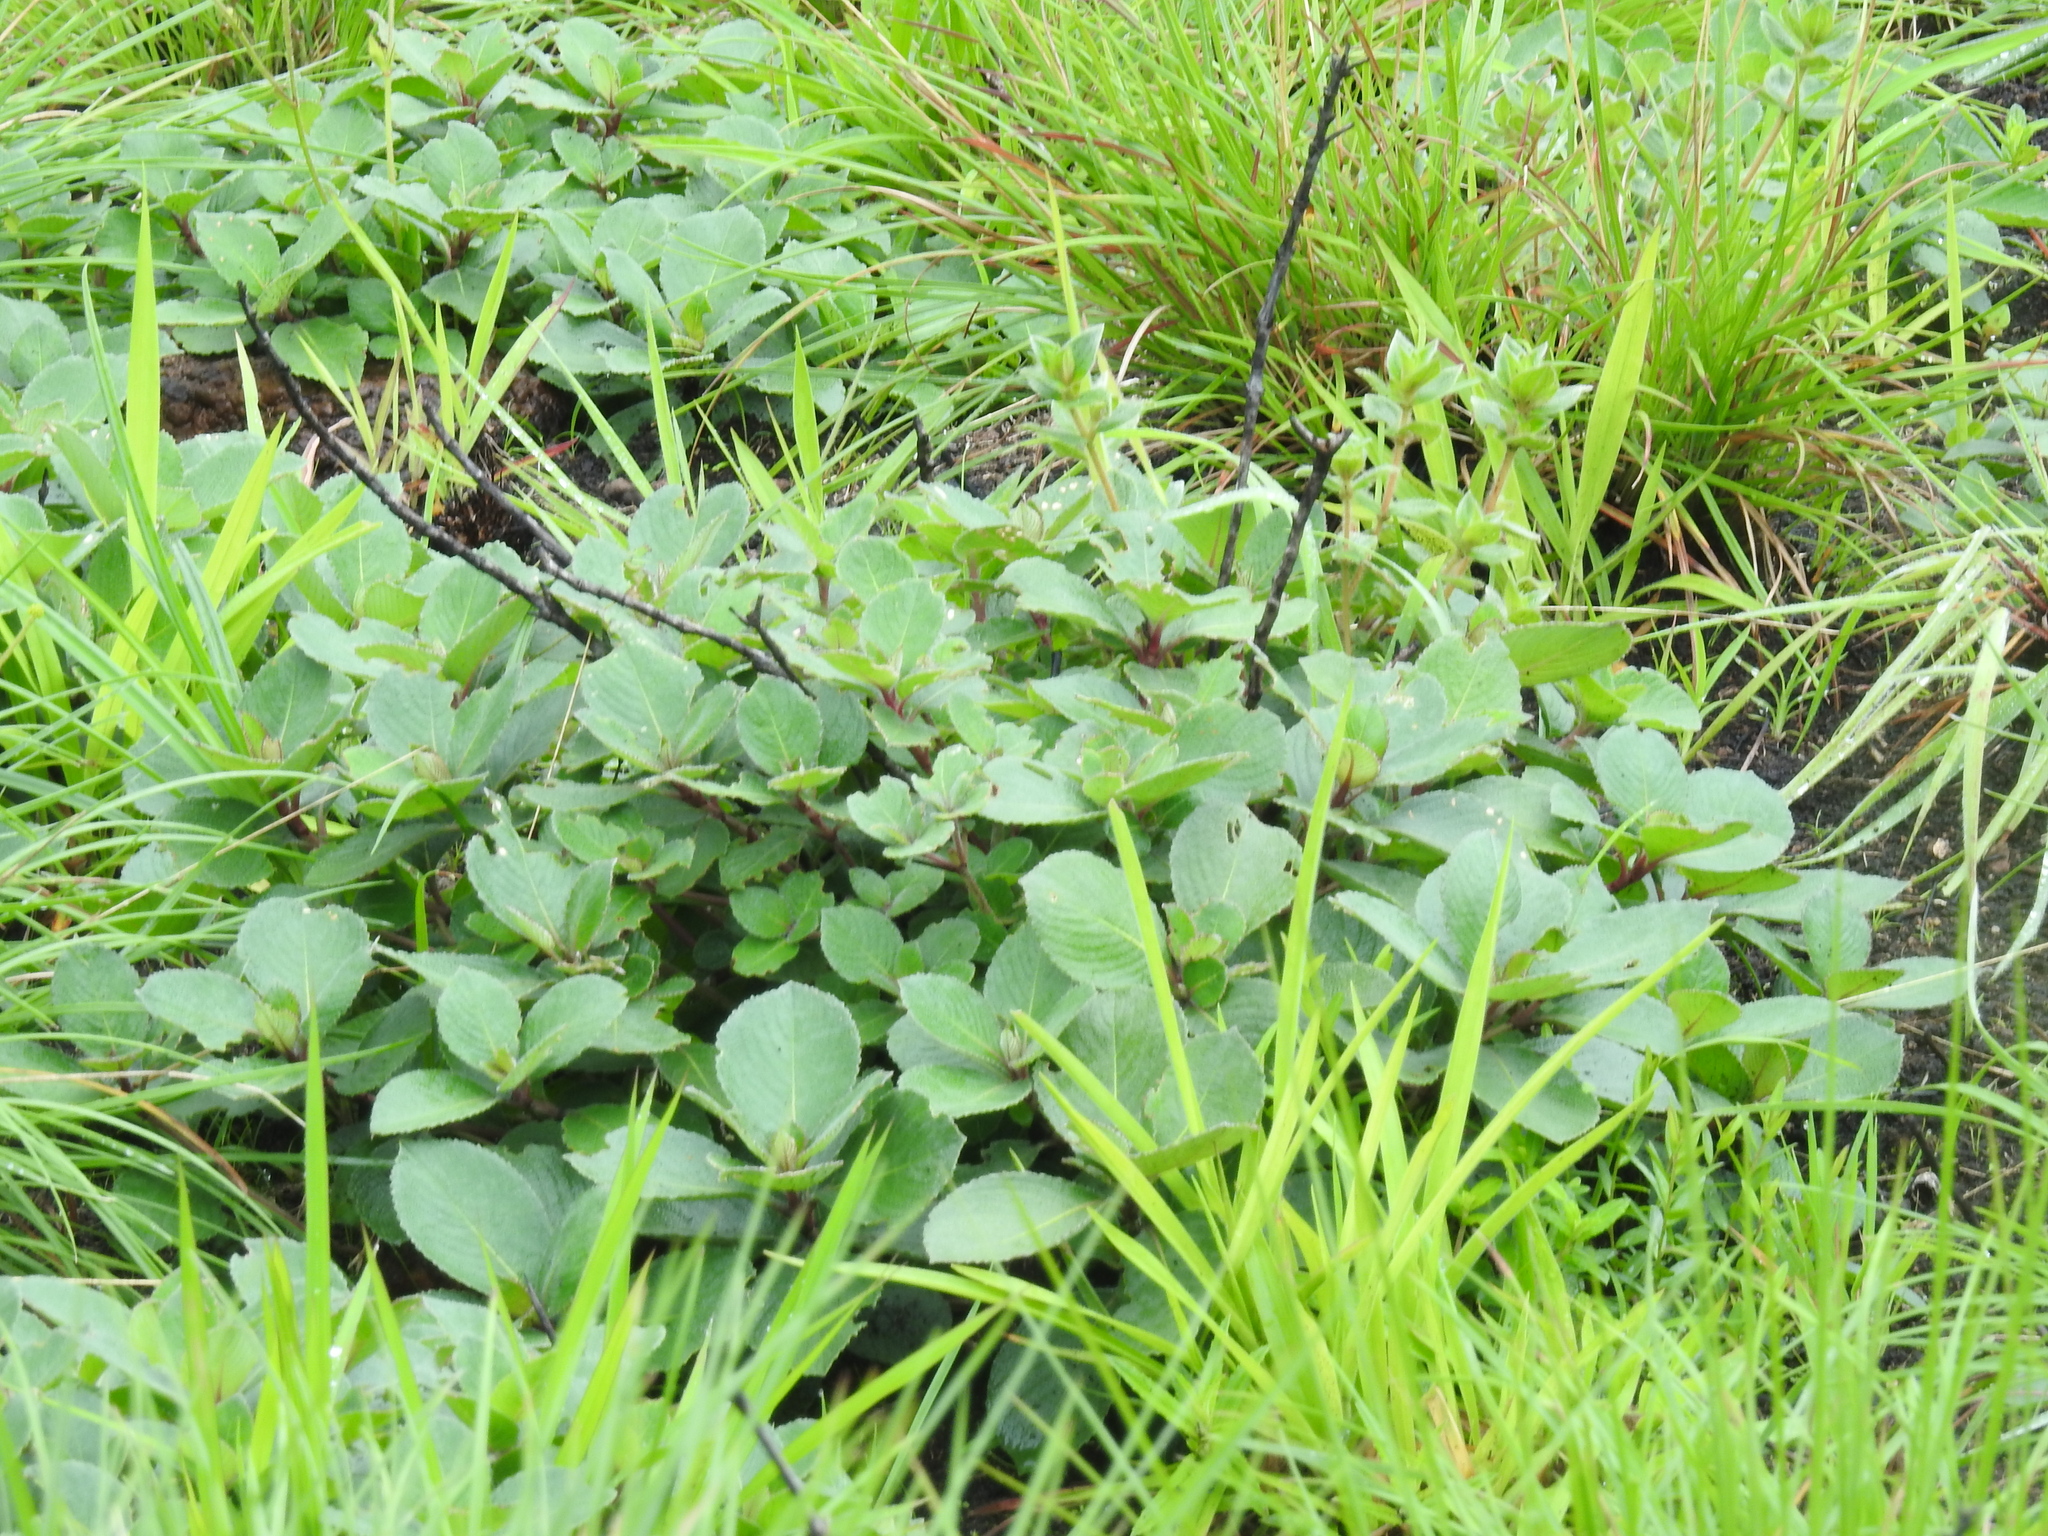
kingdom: Plantae
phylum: Tracheophyta
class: Magnoliopsida
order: Lamiales
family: Acanthaceae
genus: Strobilanthes
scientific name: Strobilanthes kunthiana
